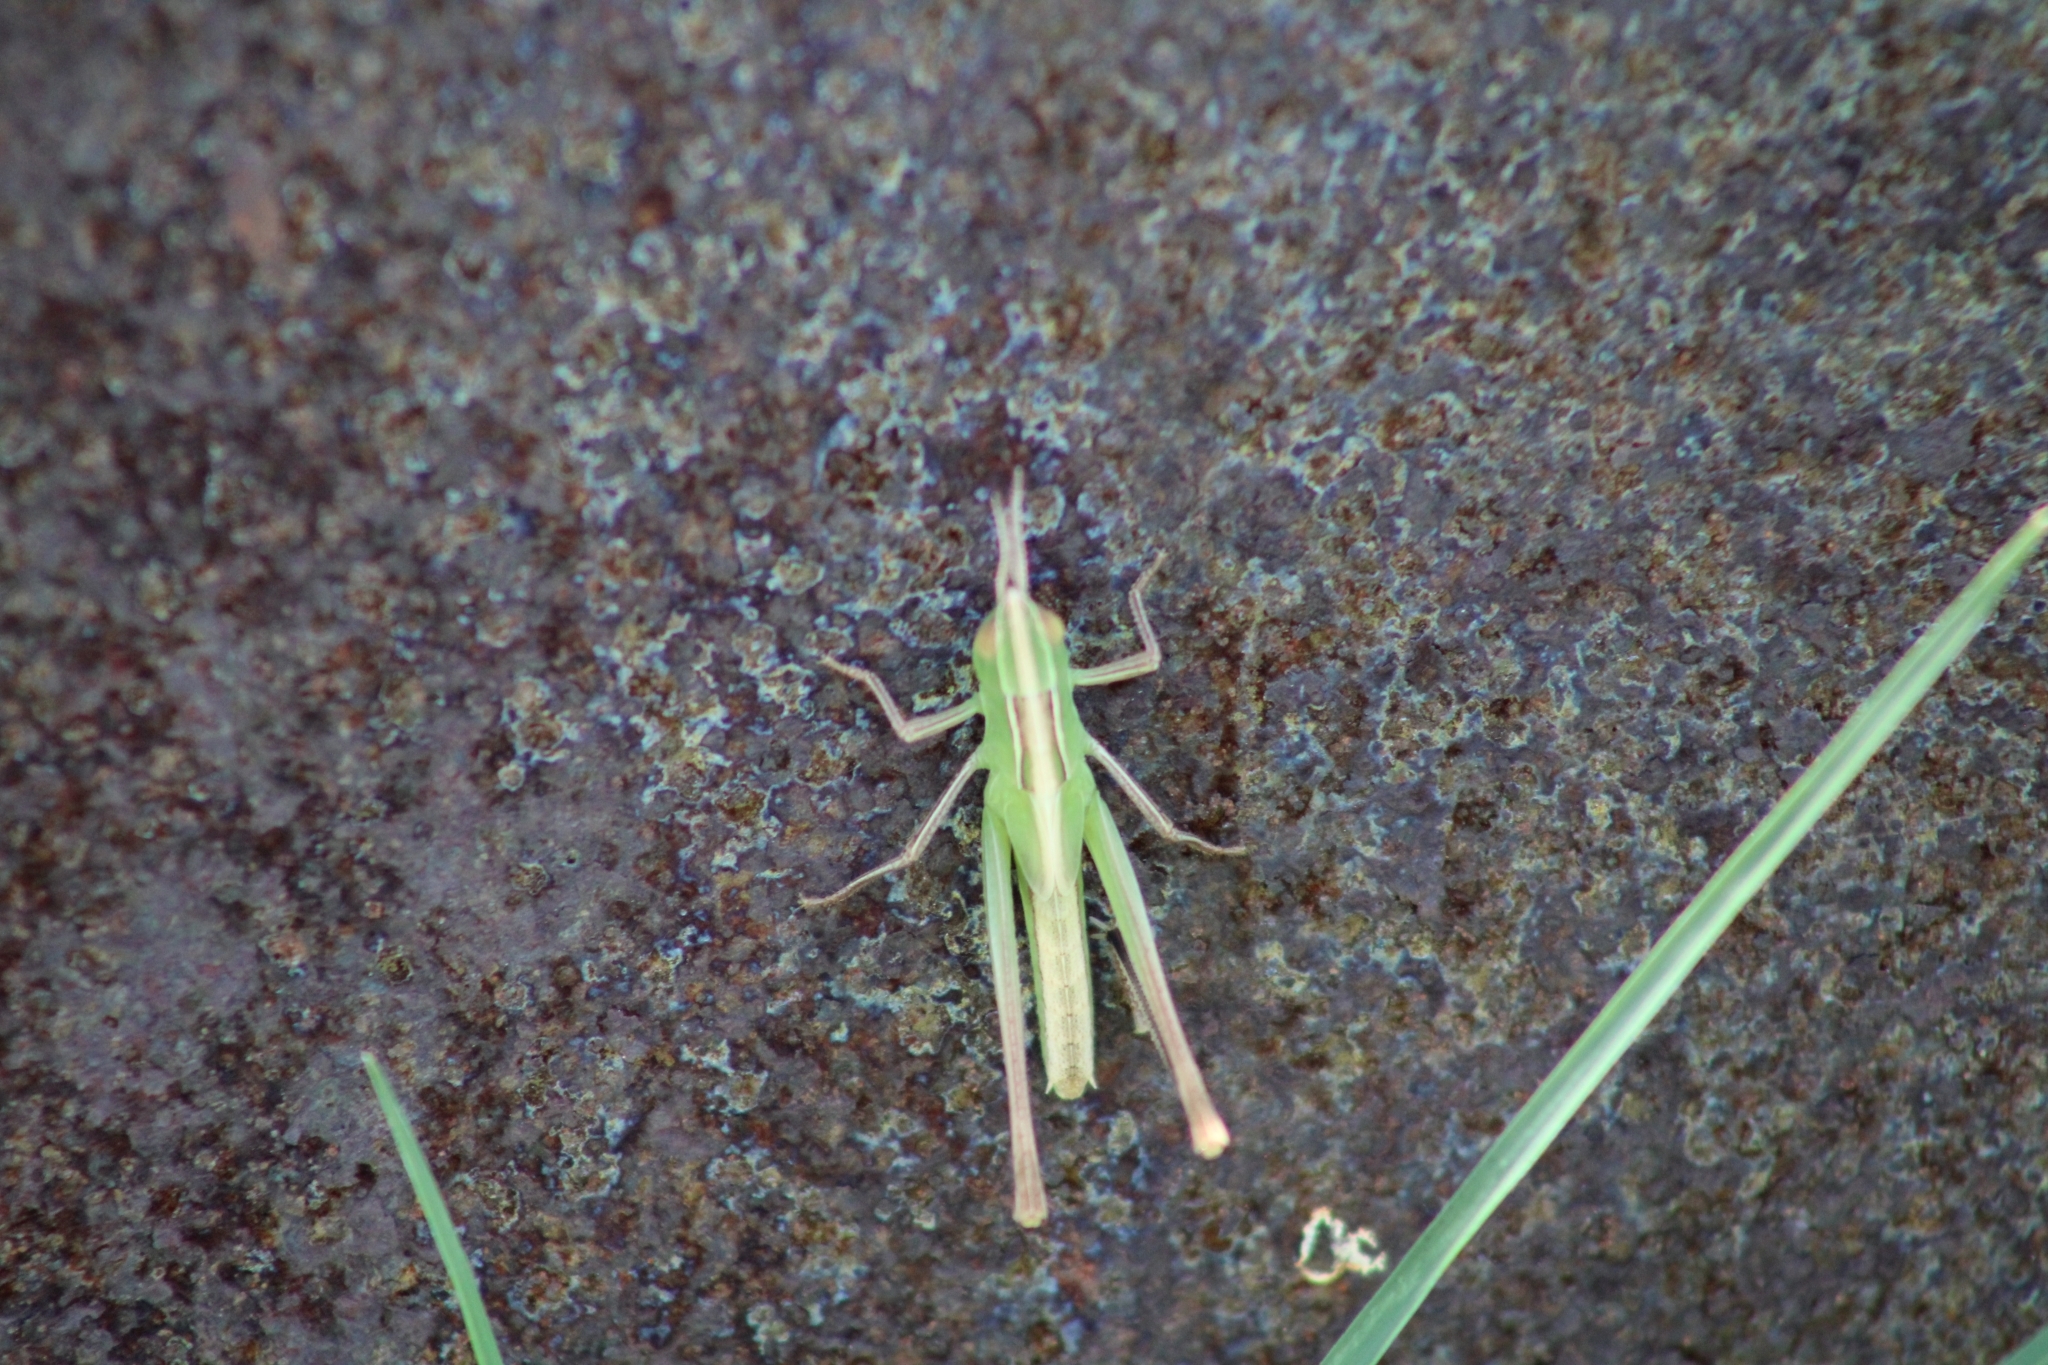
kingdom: Animalia
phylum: Arthropoda
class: Insecta
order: Orthoptera
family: Acrididae
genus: Syrbula
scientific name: Syrbula admirabilis
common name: Handsome grasshopper
